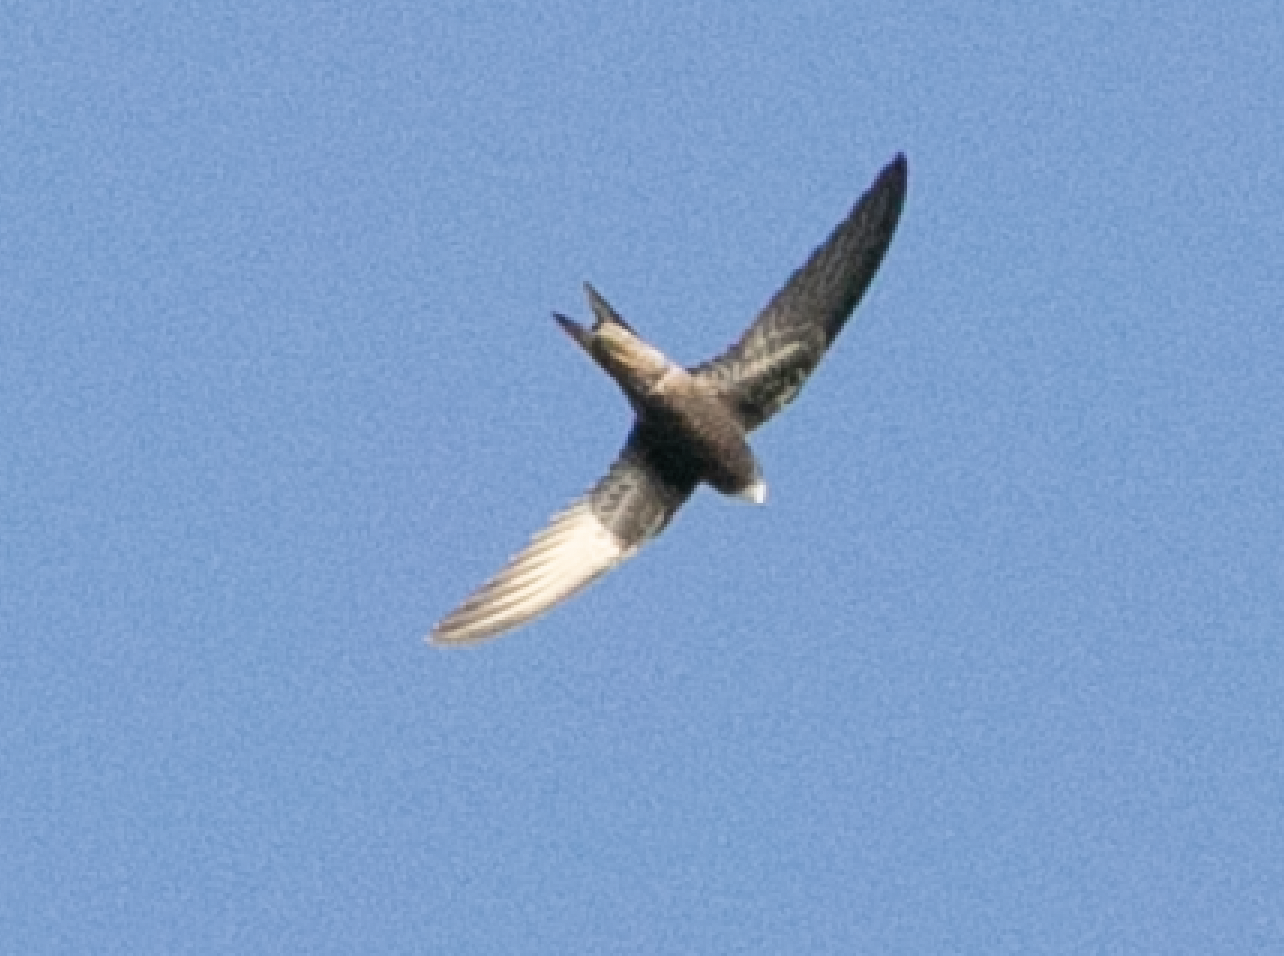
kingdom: Animalia
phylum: Chordata
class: Aves
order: Apodiformes
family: Apodidae
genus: Apus
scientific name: Apus apus
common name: Common swift
